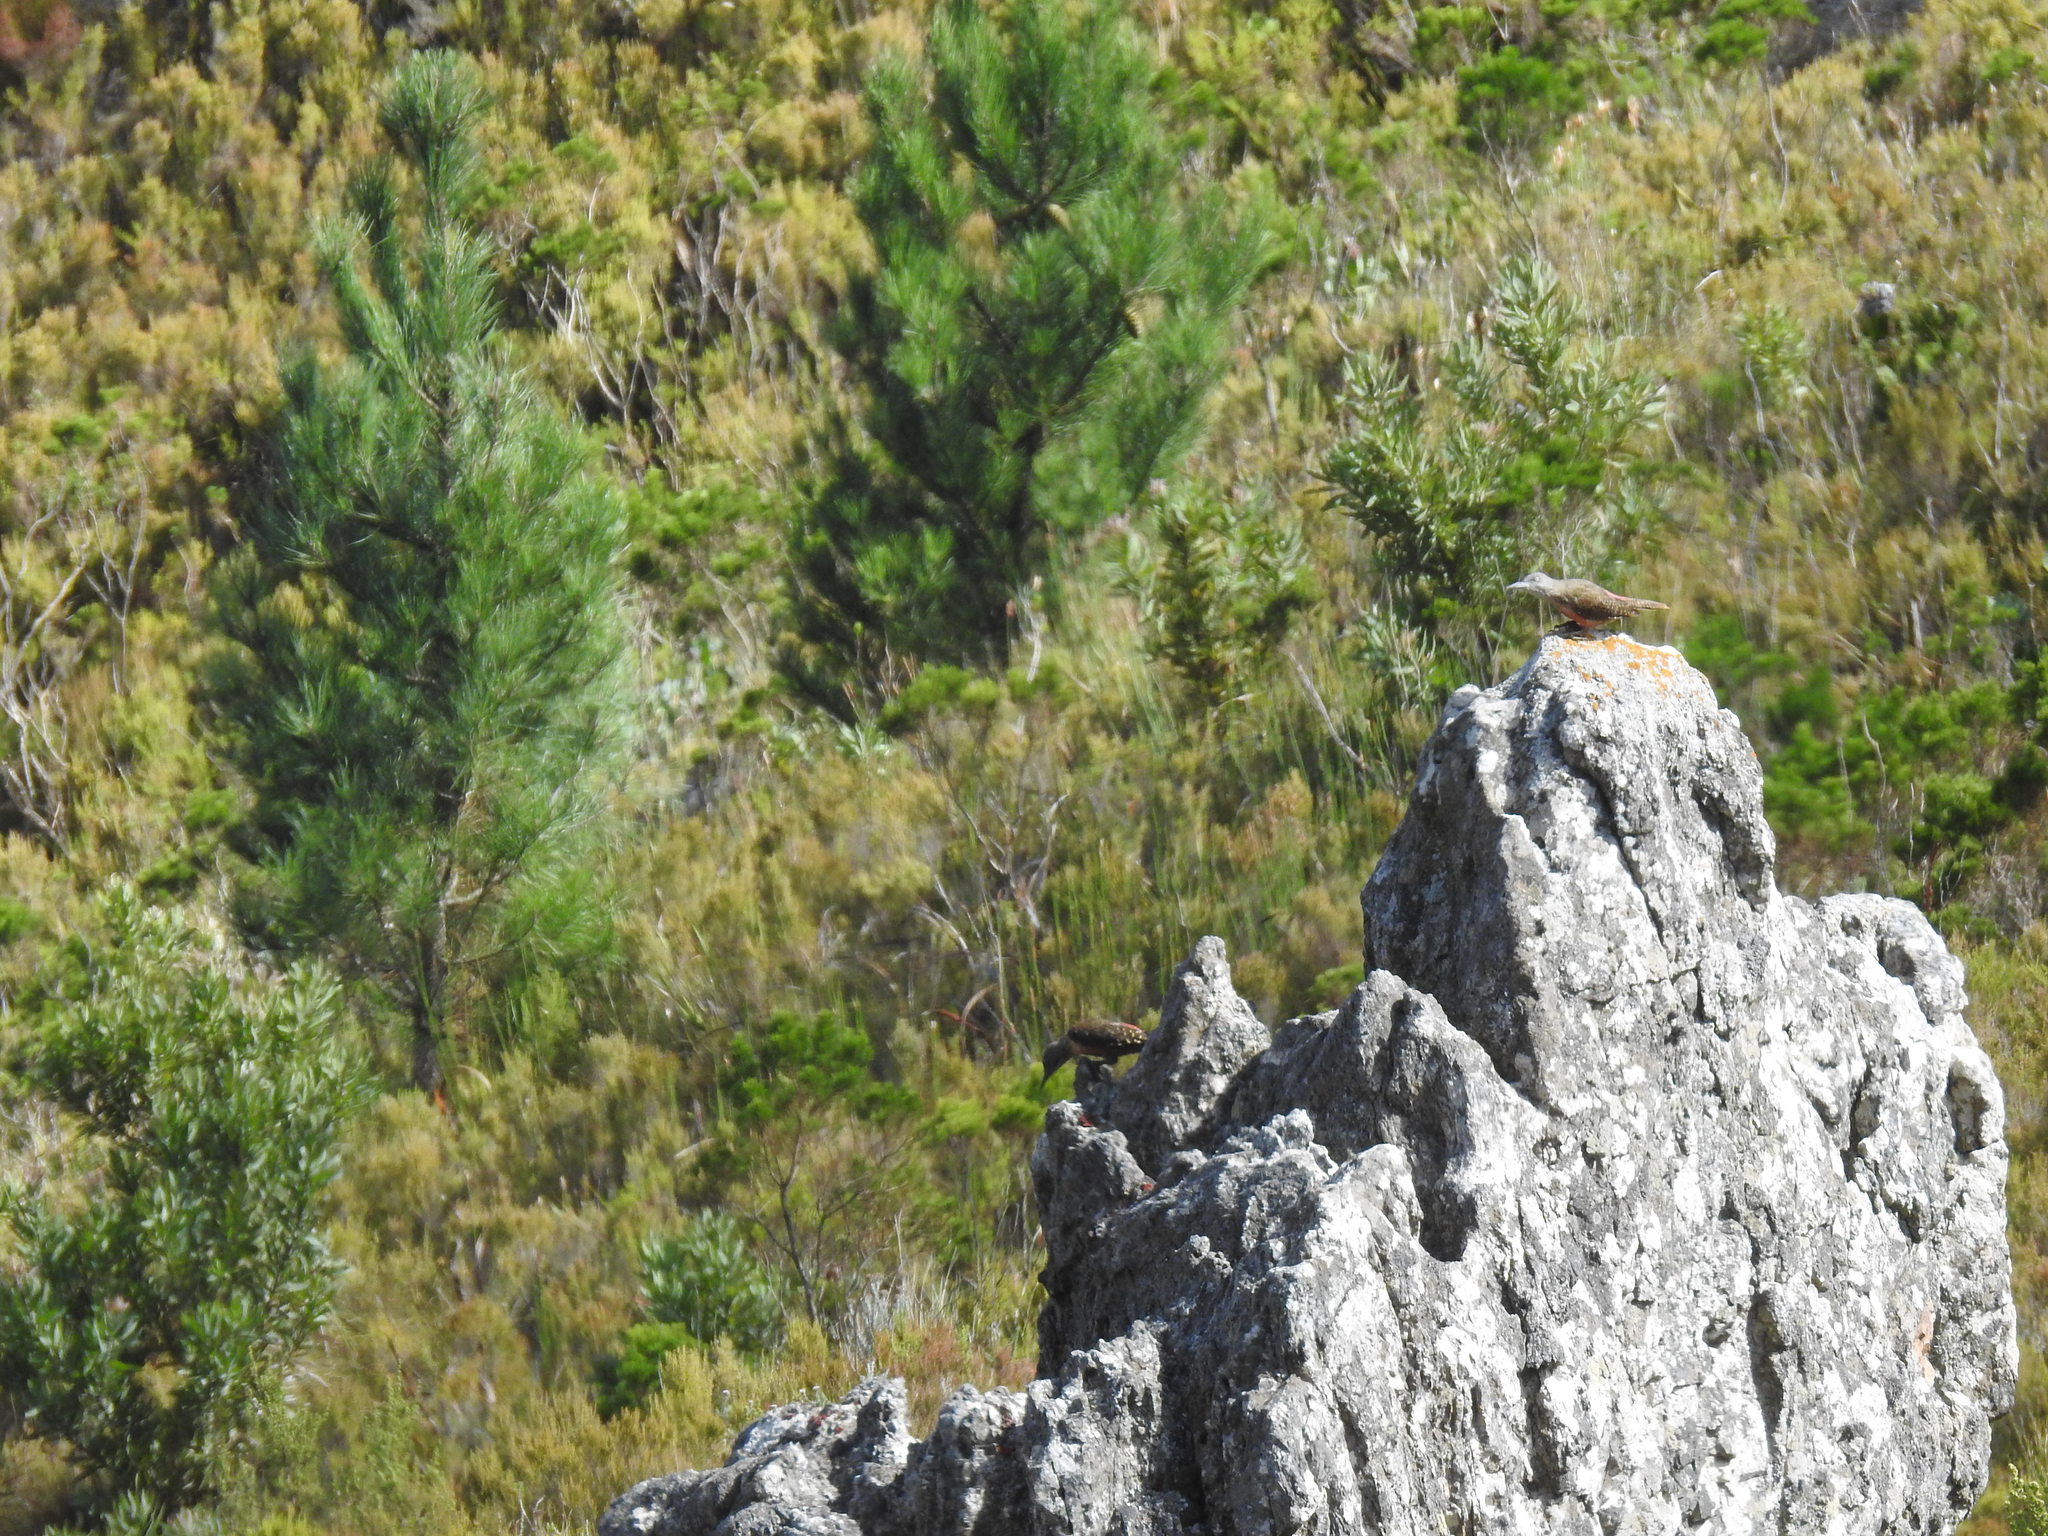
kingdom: Animalia
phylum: Chordata
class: Aves
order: Piciformes
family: Picidae
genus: Geocolaptes
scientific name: Geocolaptes olivaceus
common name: Ground woodpecker
